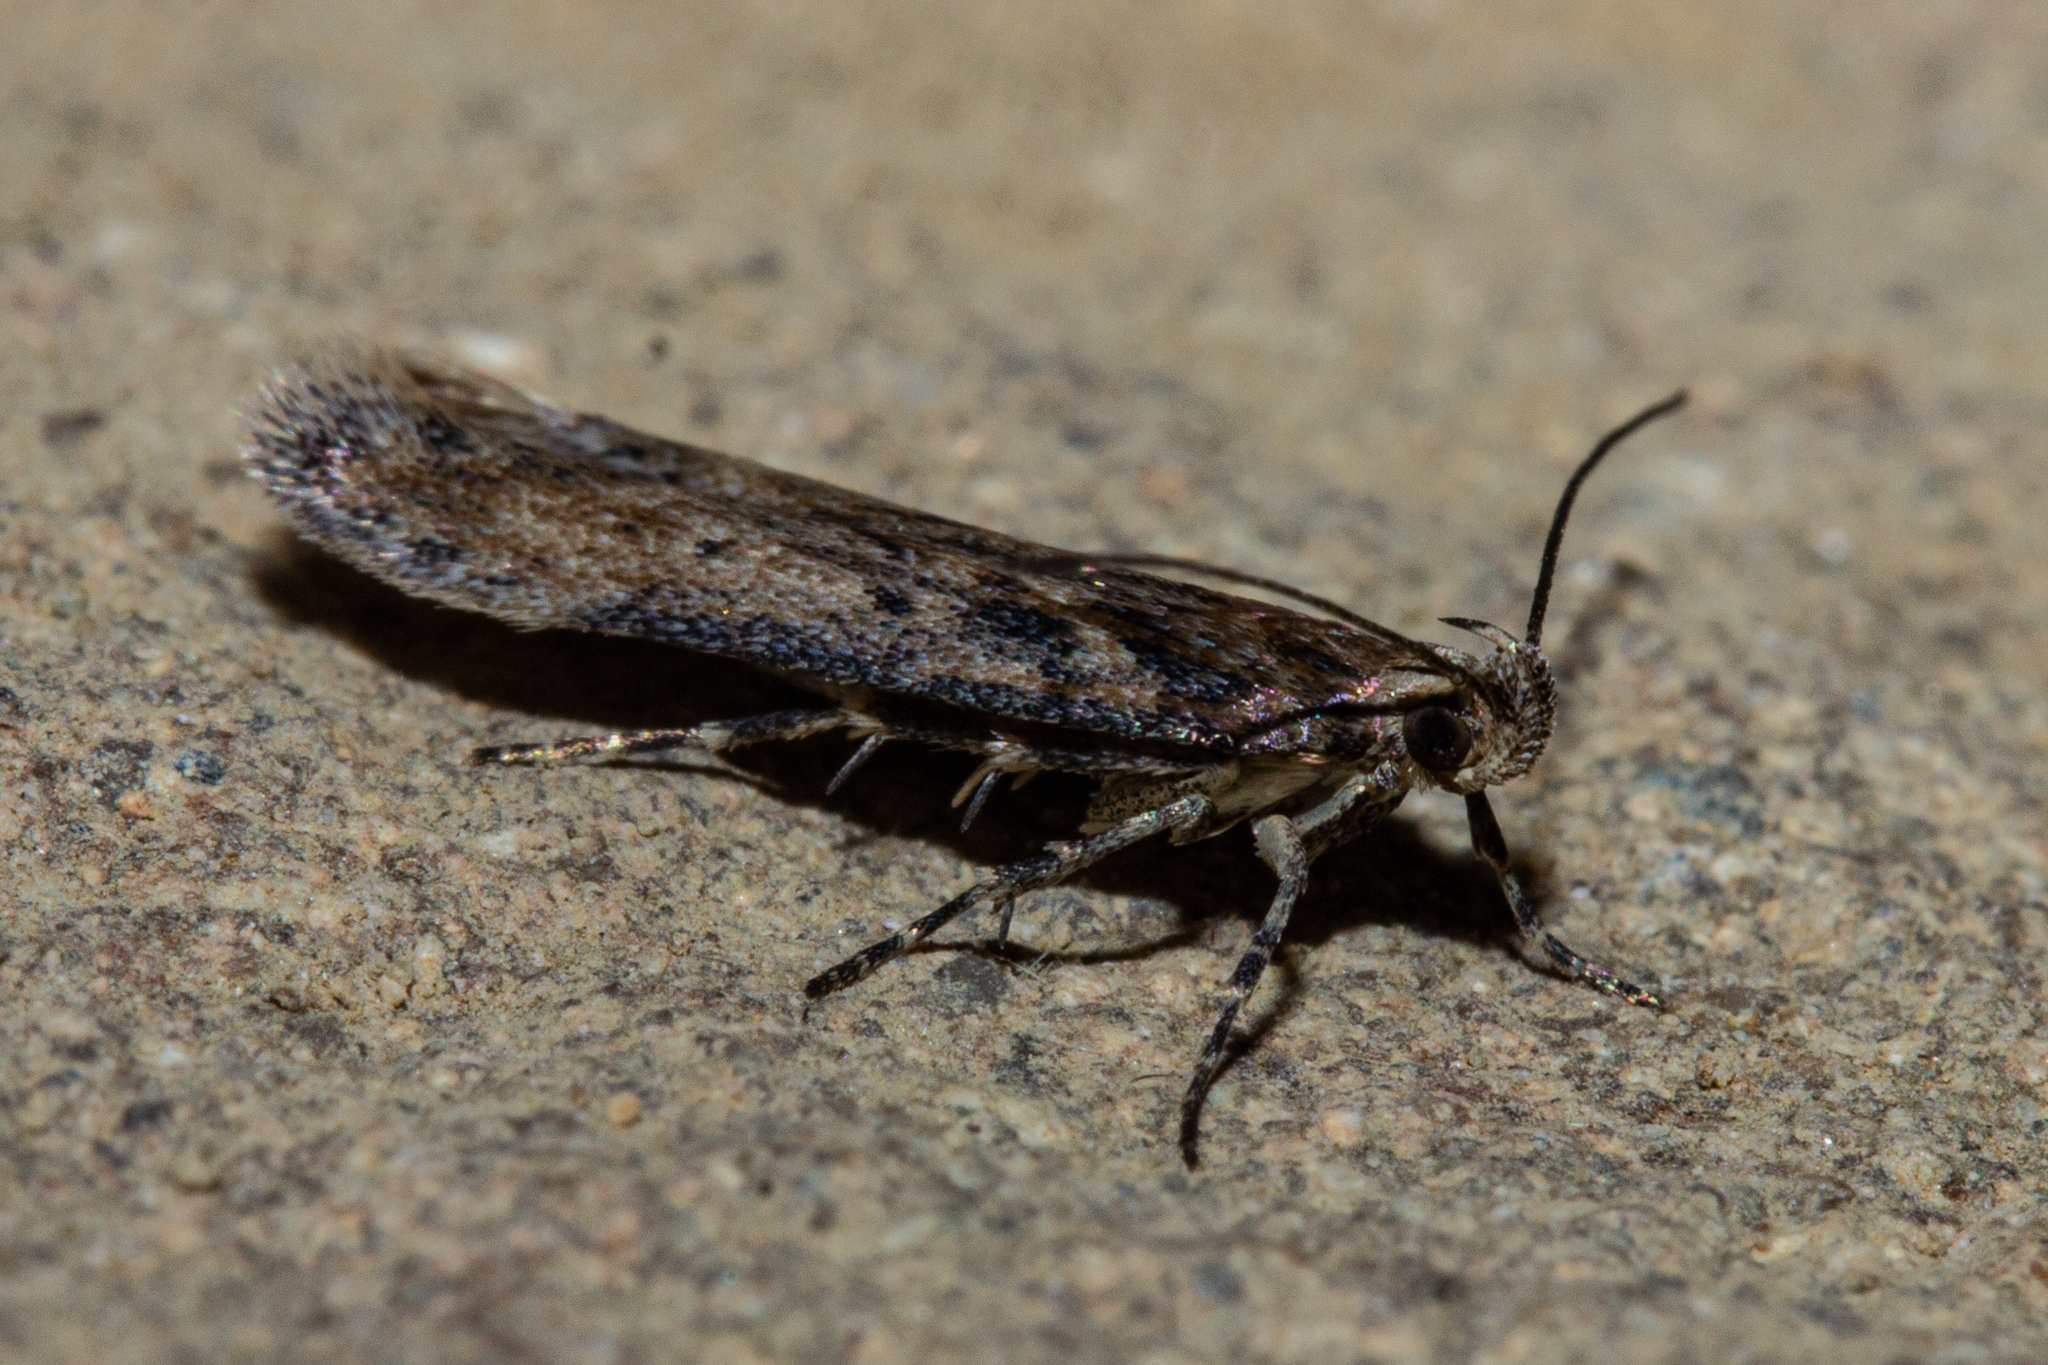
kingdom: Animalia
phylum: Arthropoda
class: Insecta
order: Lepidoptera
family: Gelechiidae
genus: Kiwaia
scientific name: Kiwaia brontophora
